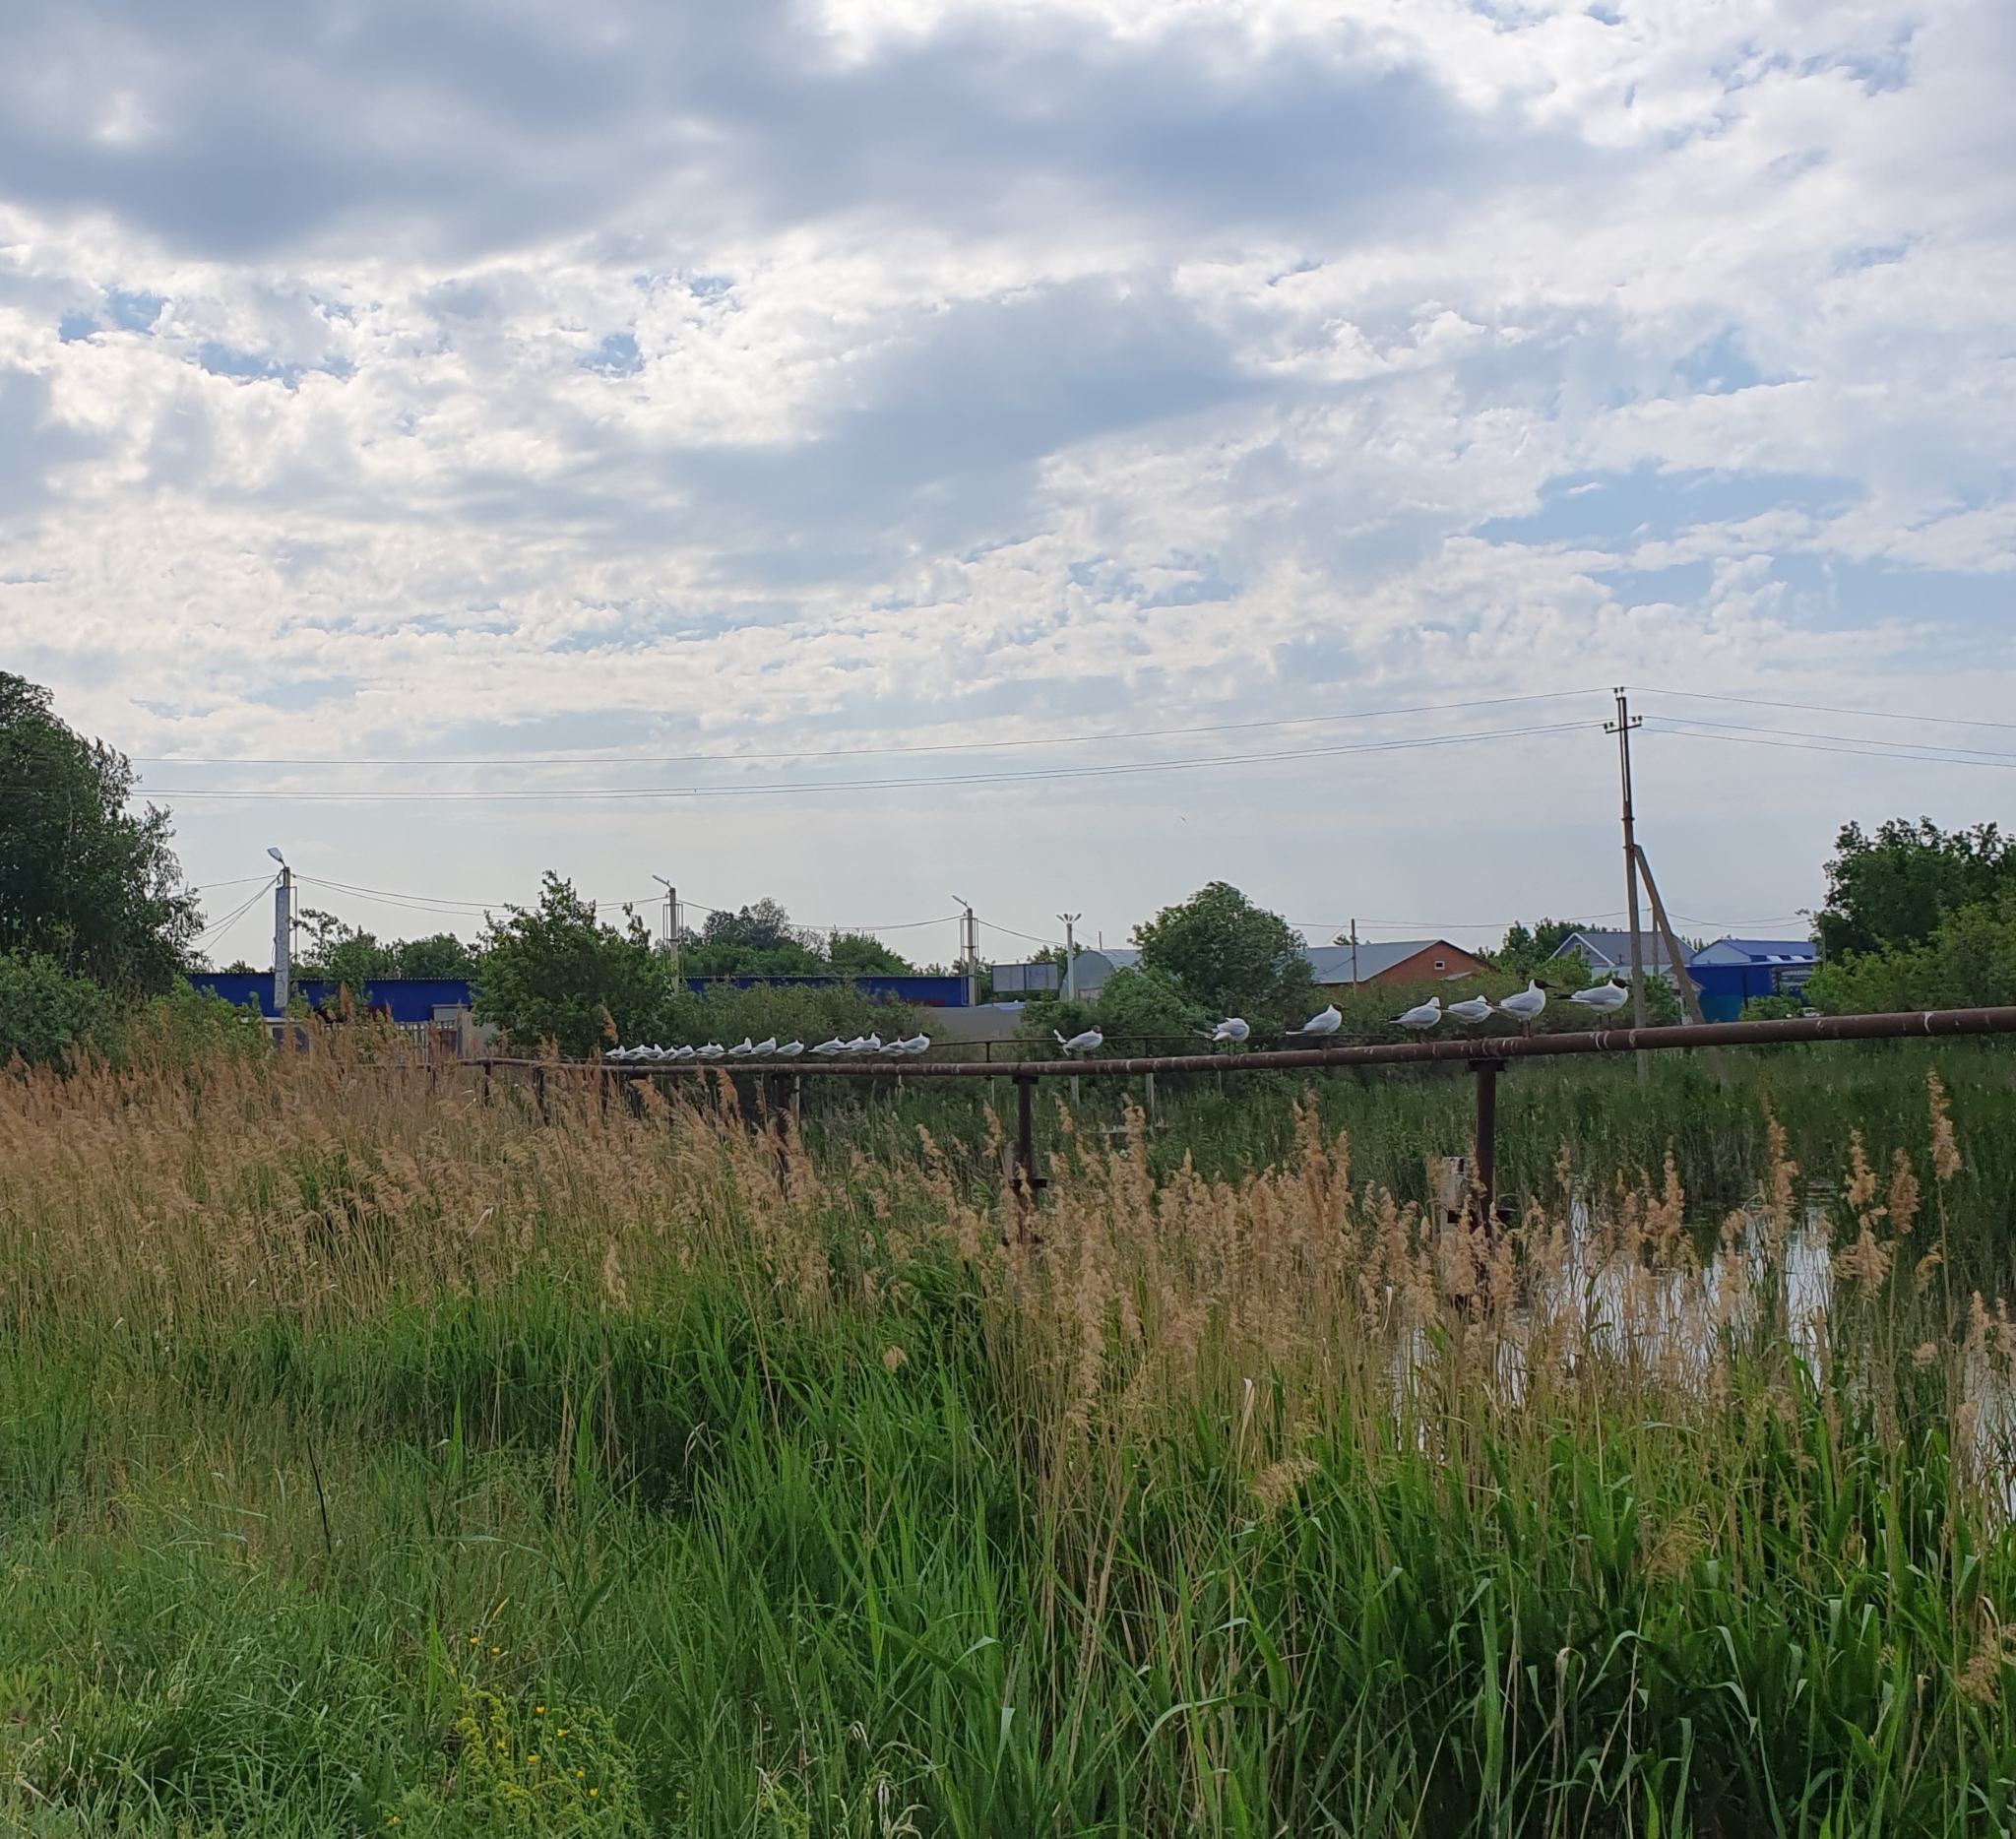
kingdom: Animalia
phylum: Chordata
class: Aves
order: Charadriiformes
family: Laridae
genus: Chroicocephalus
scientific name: Chroicocephalus ridibundus
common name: Black-headed gull
